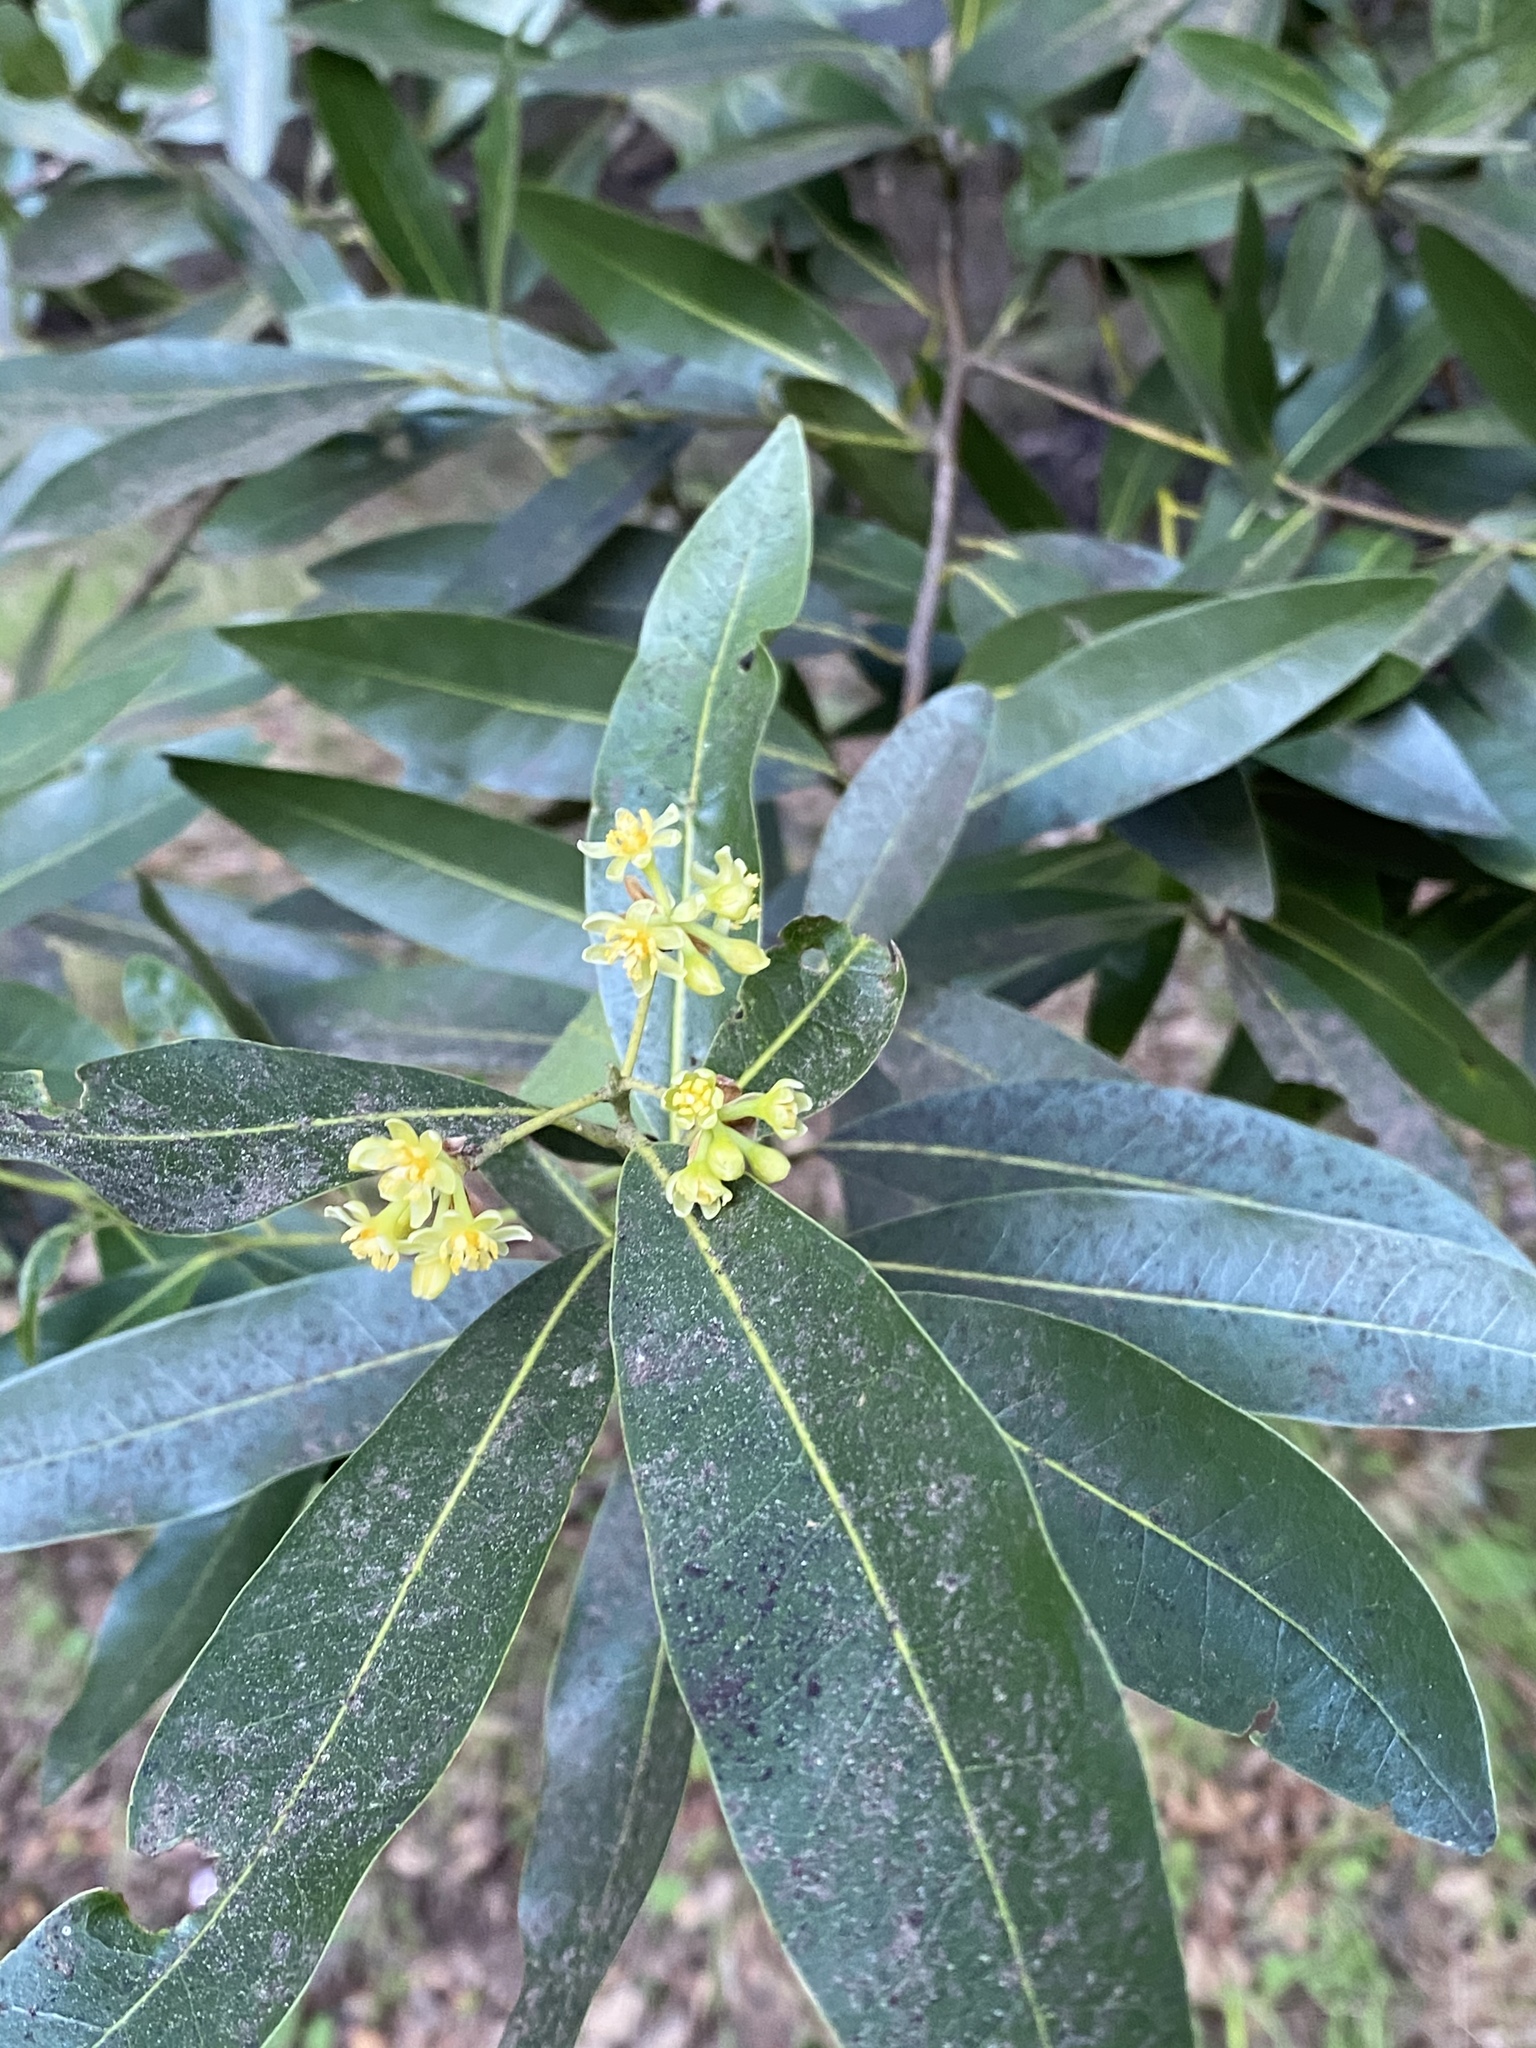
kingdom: Plantae
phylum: Tracheophyta
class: Magnoliopsida
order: Laurales
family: Lauraceae
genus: Umbellularia
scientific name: Umbellularia californica
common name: California bay
